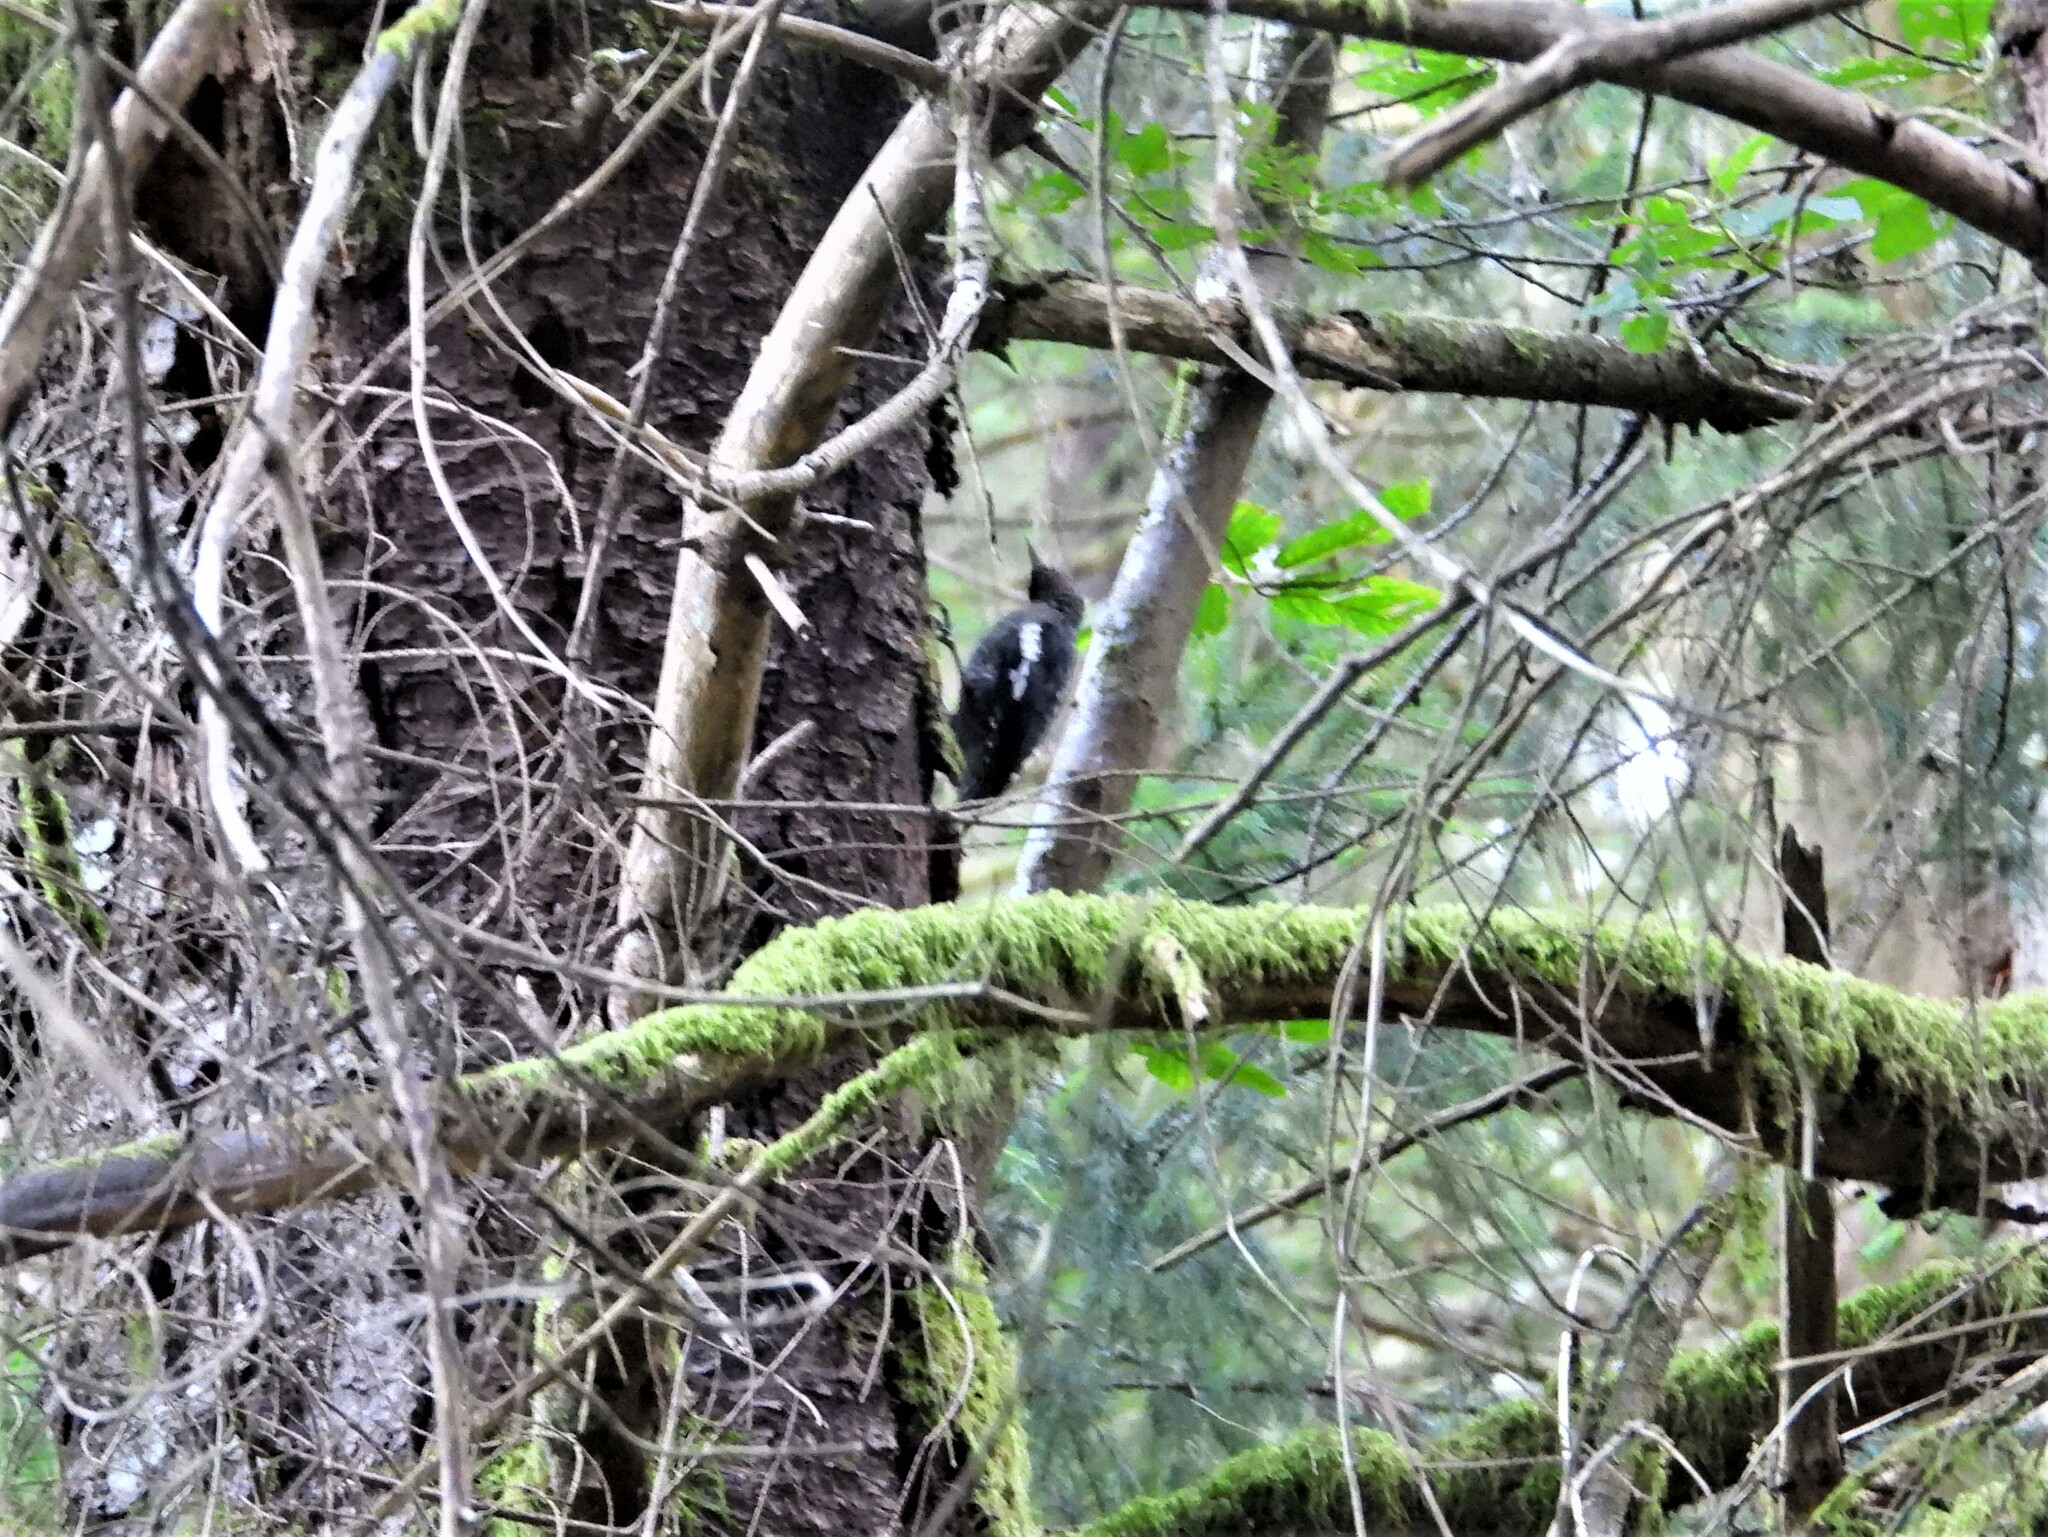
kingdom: Animalia
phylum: Chordata
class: Aves
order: Piciformes
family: Picidae
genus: Sphyrapicus
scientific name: Sphyrapicus ruber
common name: Red-breasted sapsucker
